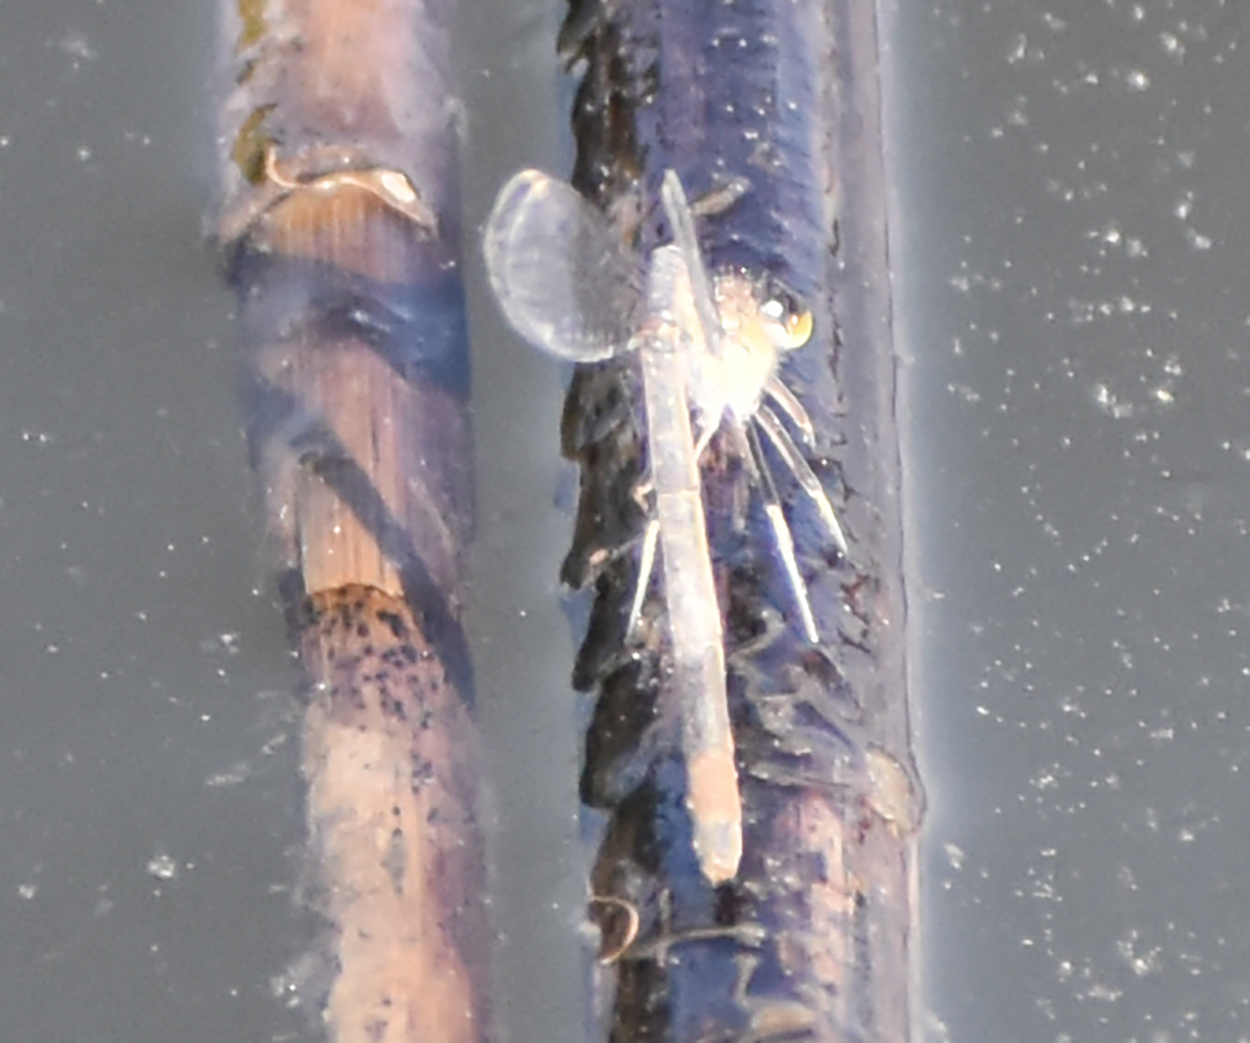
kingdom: Animalia
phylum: Arthropoda
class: Insecta
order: Odonata
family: Coenagrionidae
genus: Ischnura
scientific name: Ischnura elegans
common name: Blue-tailed damselfly
